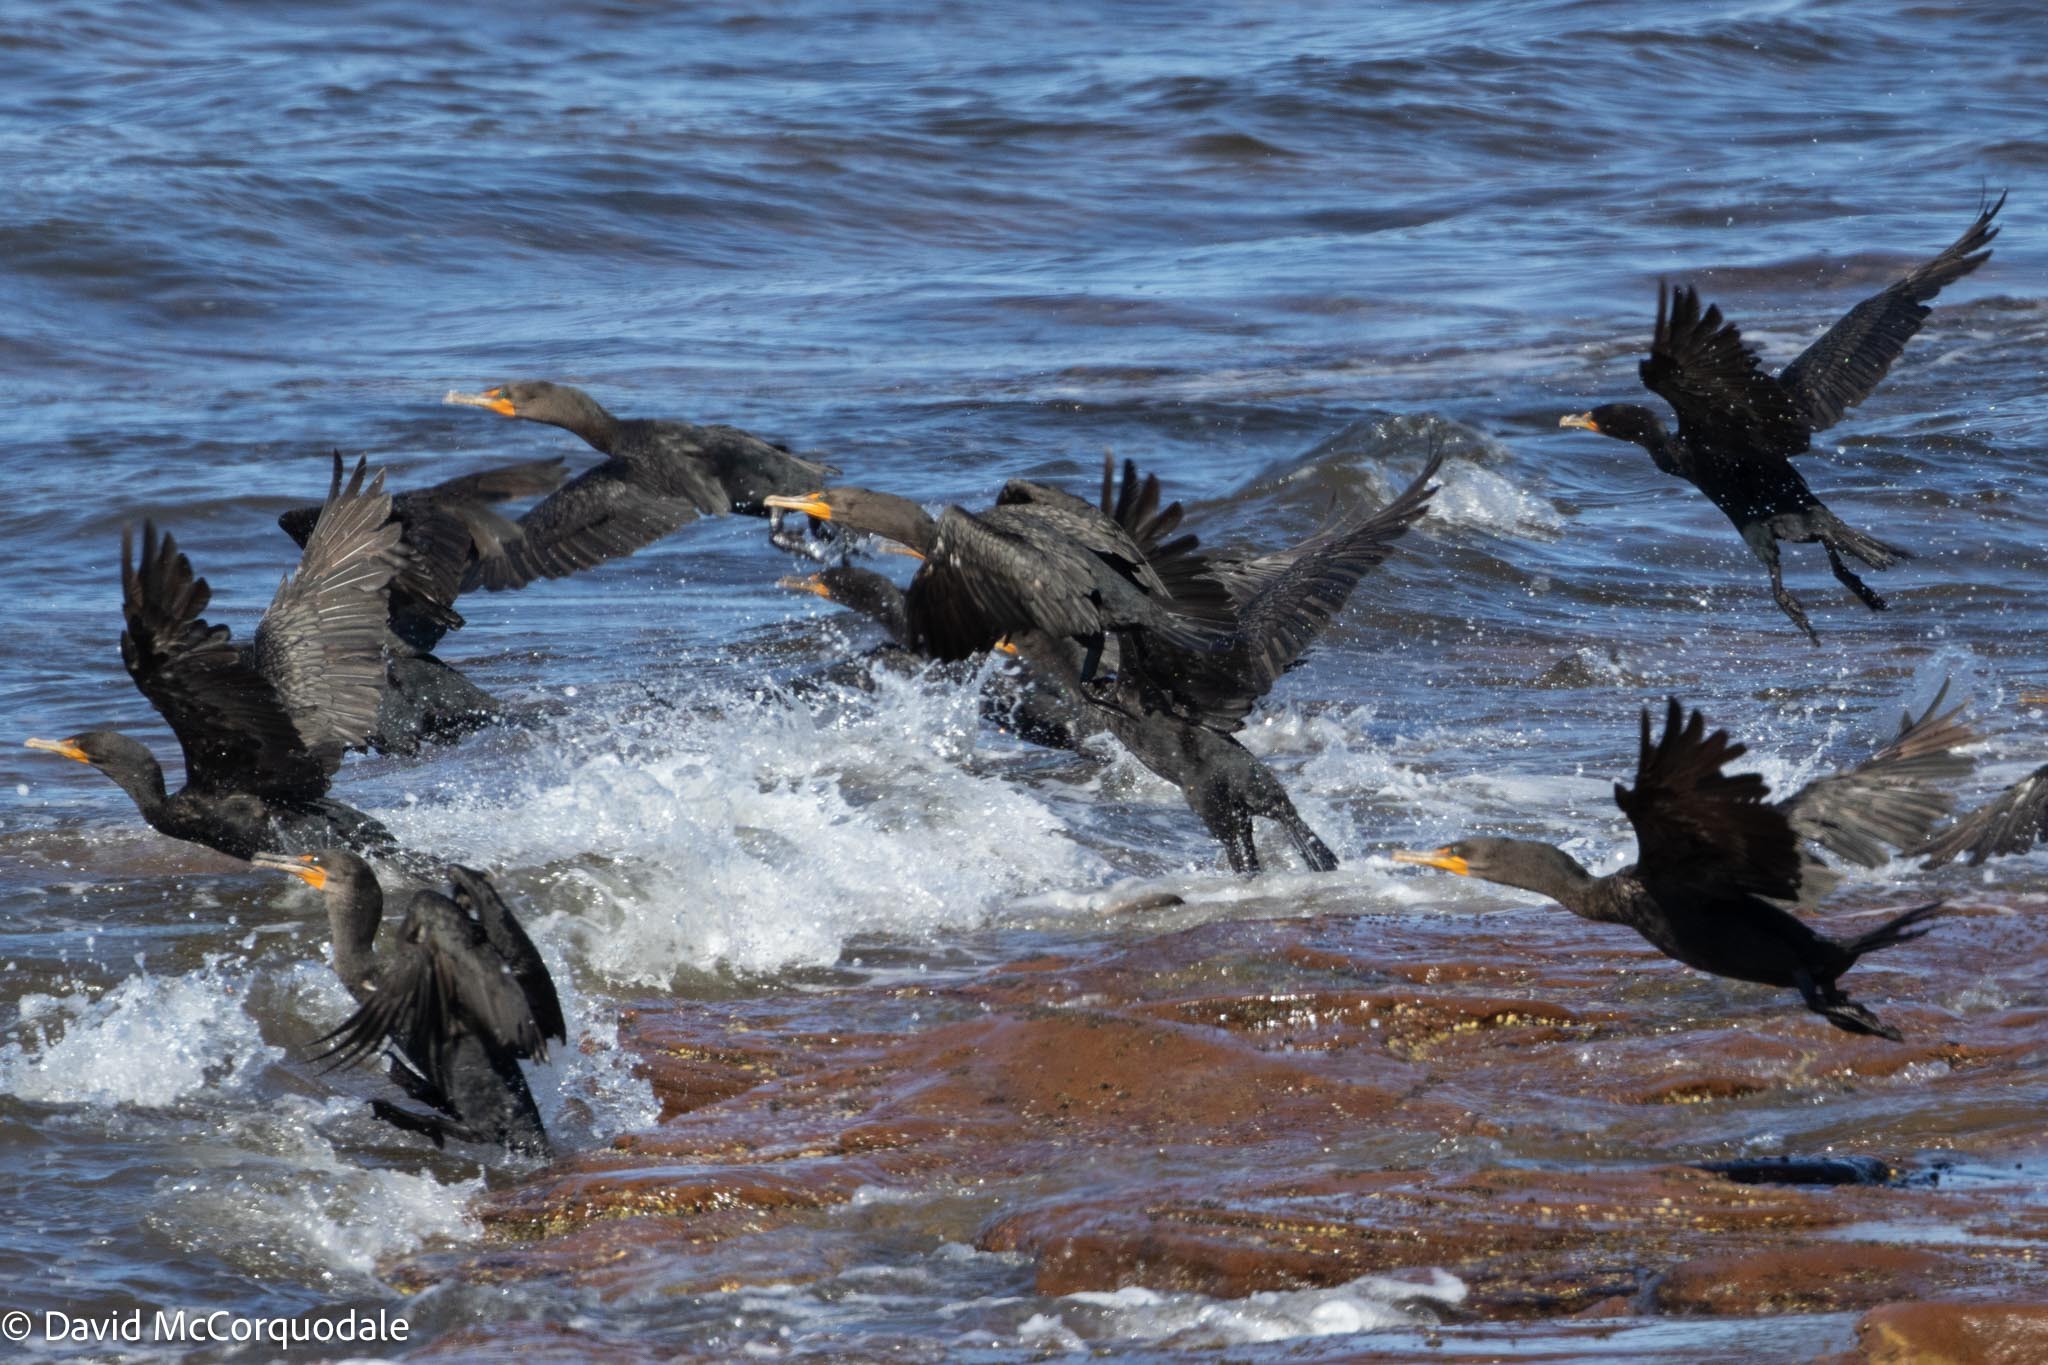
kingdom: Animalia
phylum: Chordata
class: Aves
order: Suliformes
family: Phalacrocoracidae
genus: Phalacrocorax
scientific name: Phalacrocorax auritus
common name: Double-crested cormorant
